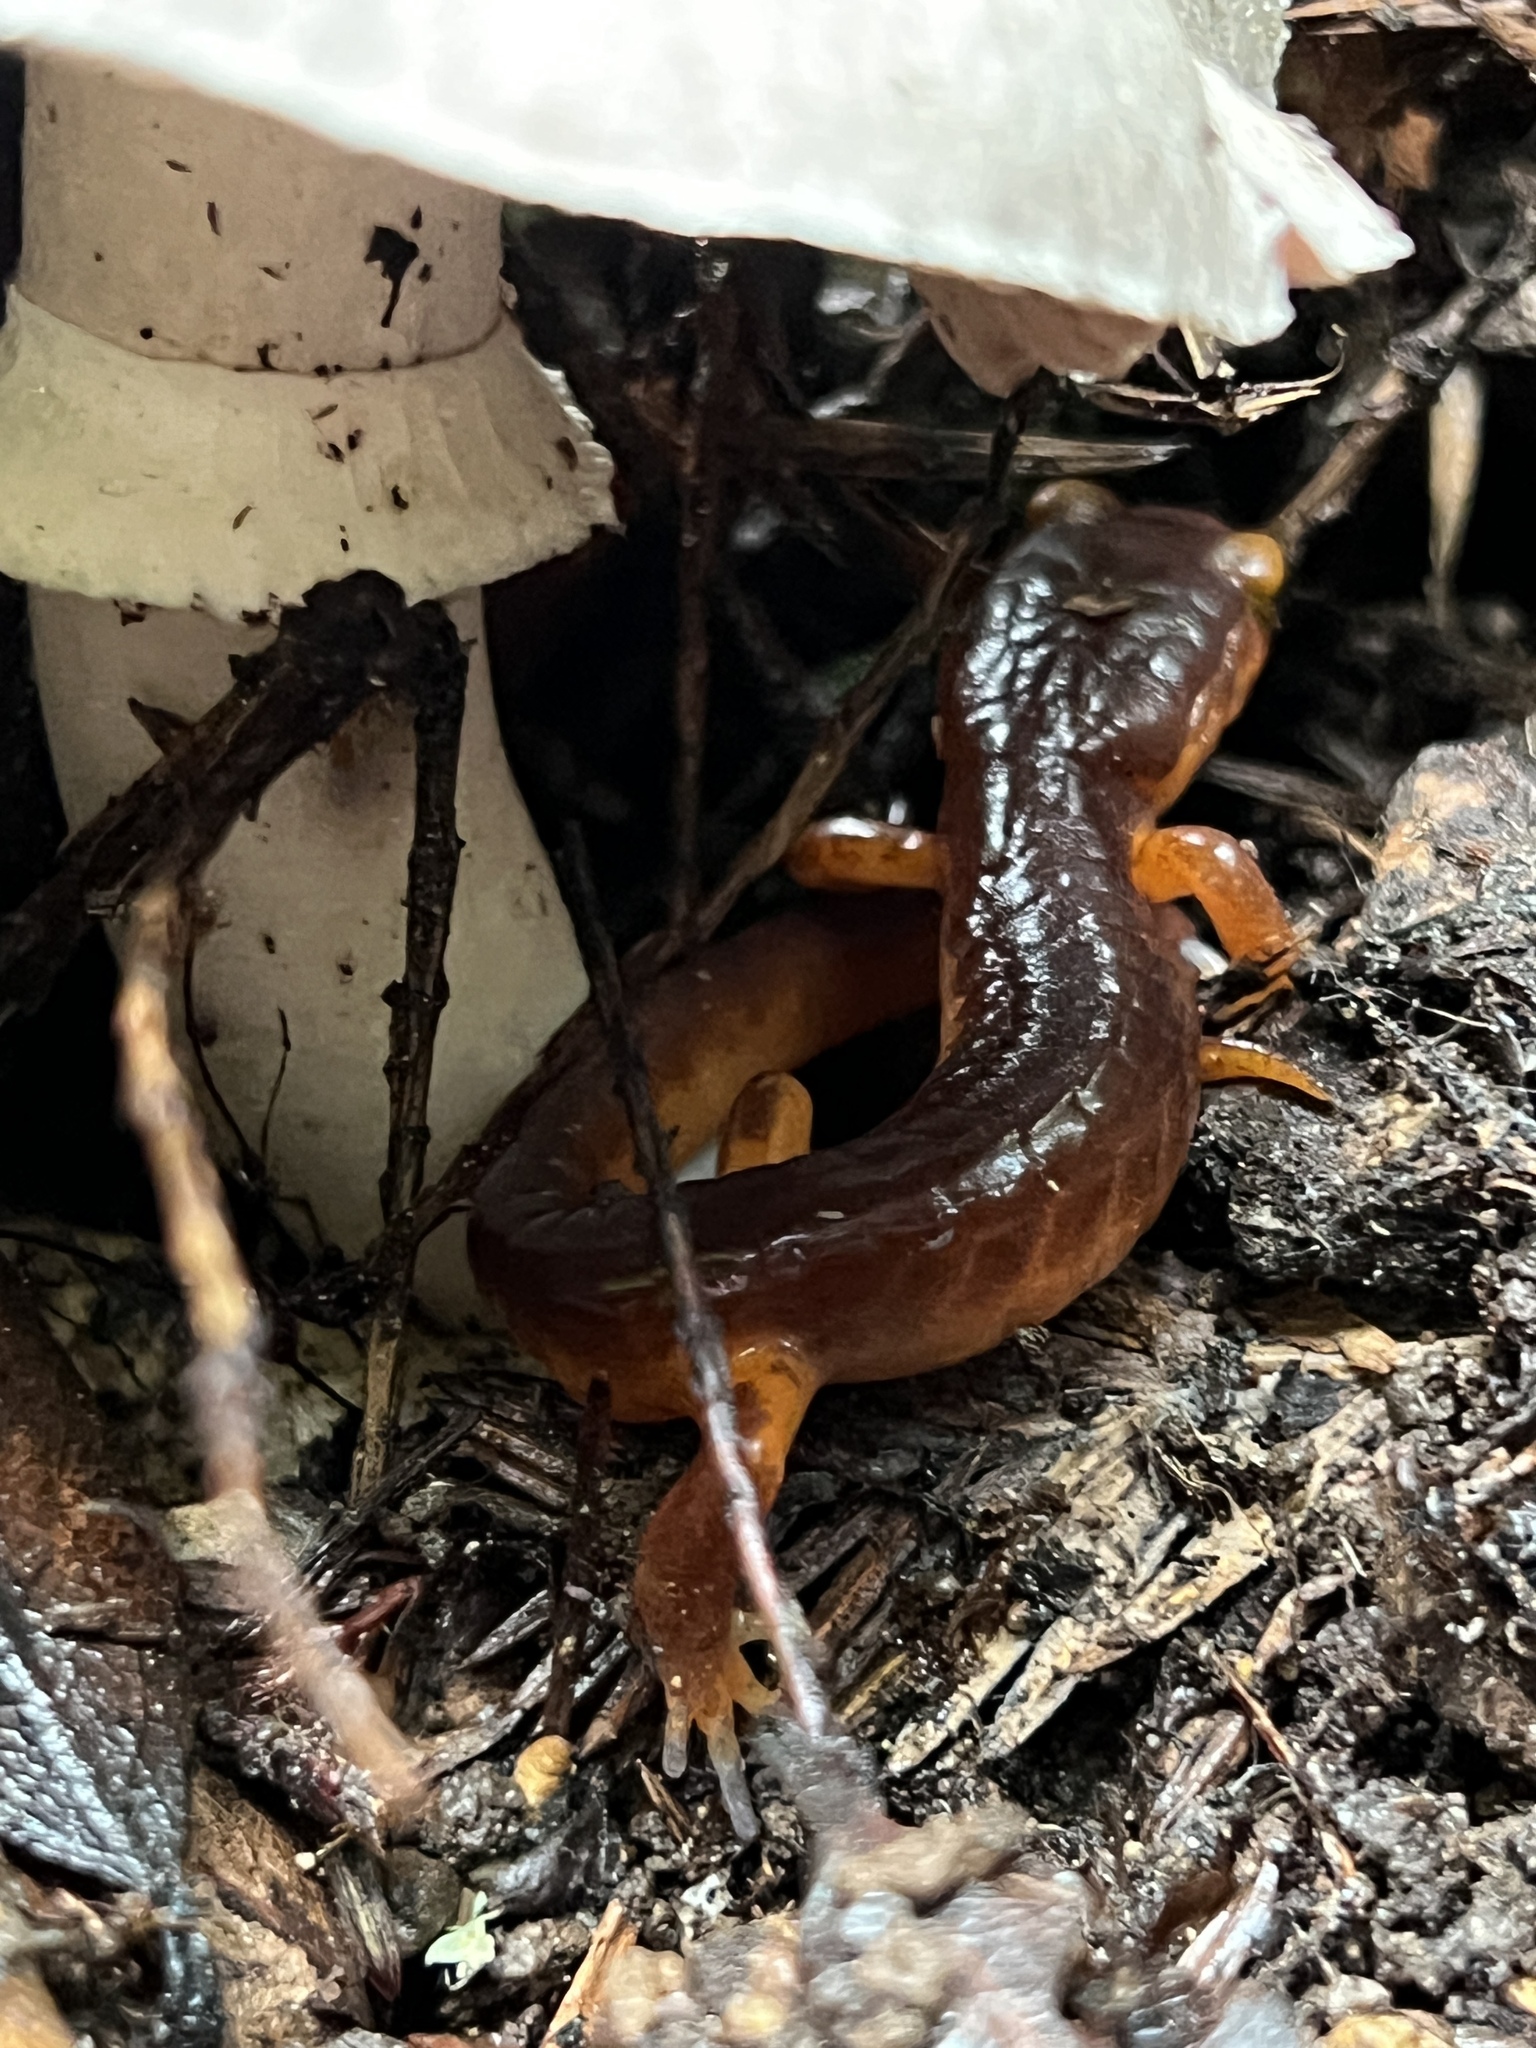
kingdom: Animalia
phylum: Chordata
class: Amphibia
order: Caudata
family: Plethodontidae
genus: Ensatina
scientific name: Ensatina eschscholtzii
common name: Ensatina
